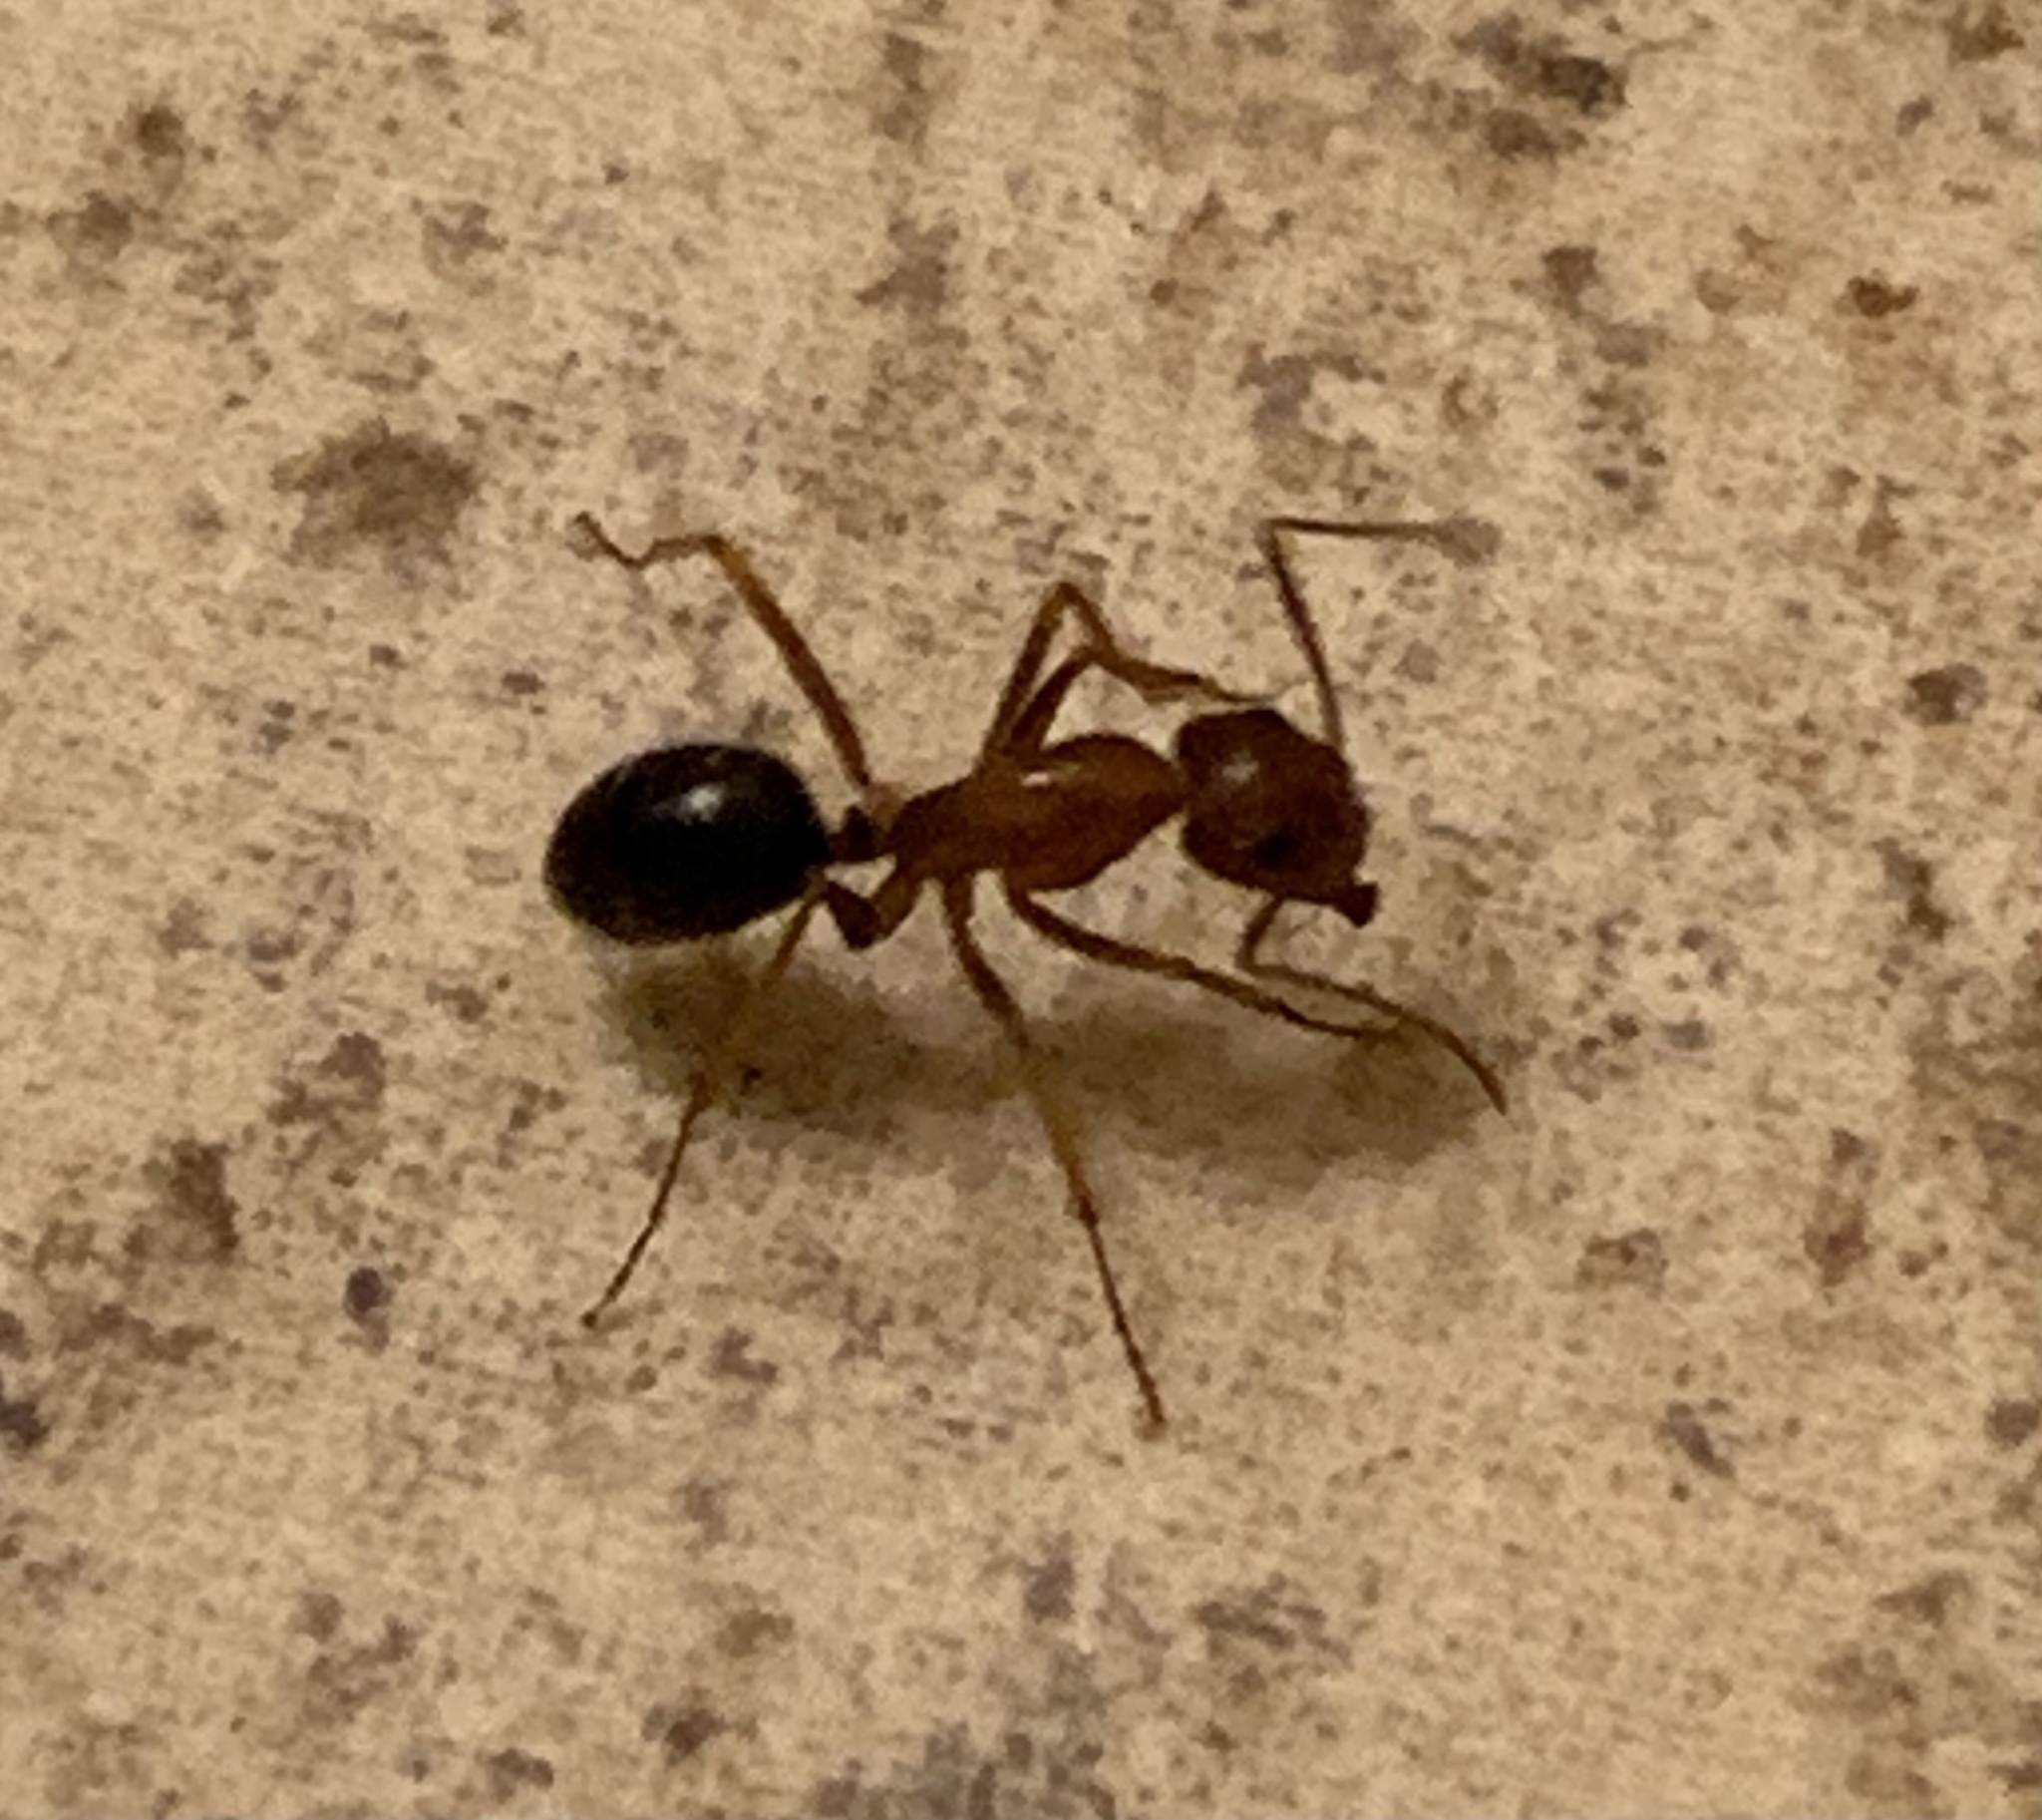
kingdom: Animalia
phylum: Arthropoda
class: Insecta
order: Hymenoptera
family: Formicidae
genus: Camponotus
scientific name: Camponotus floridanus
